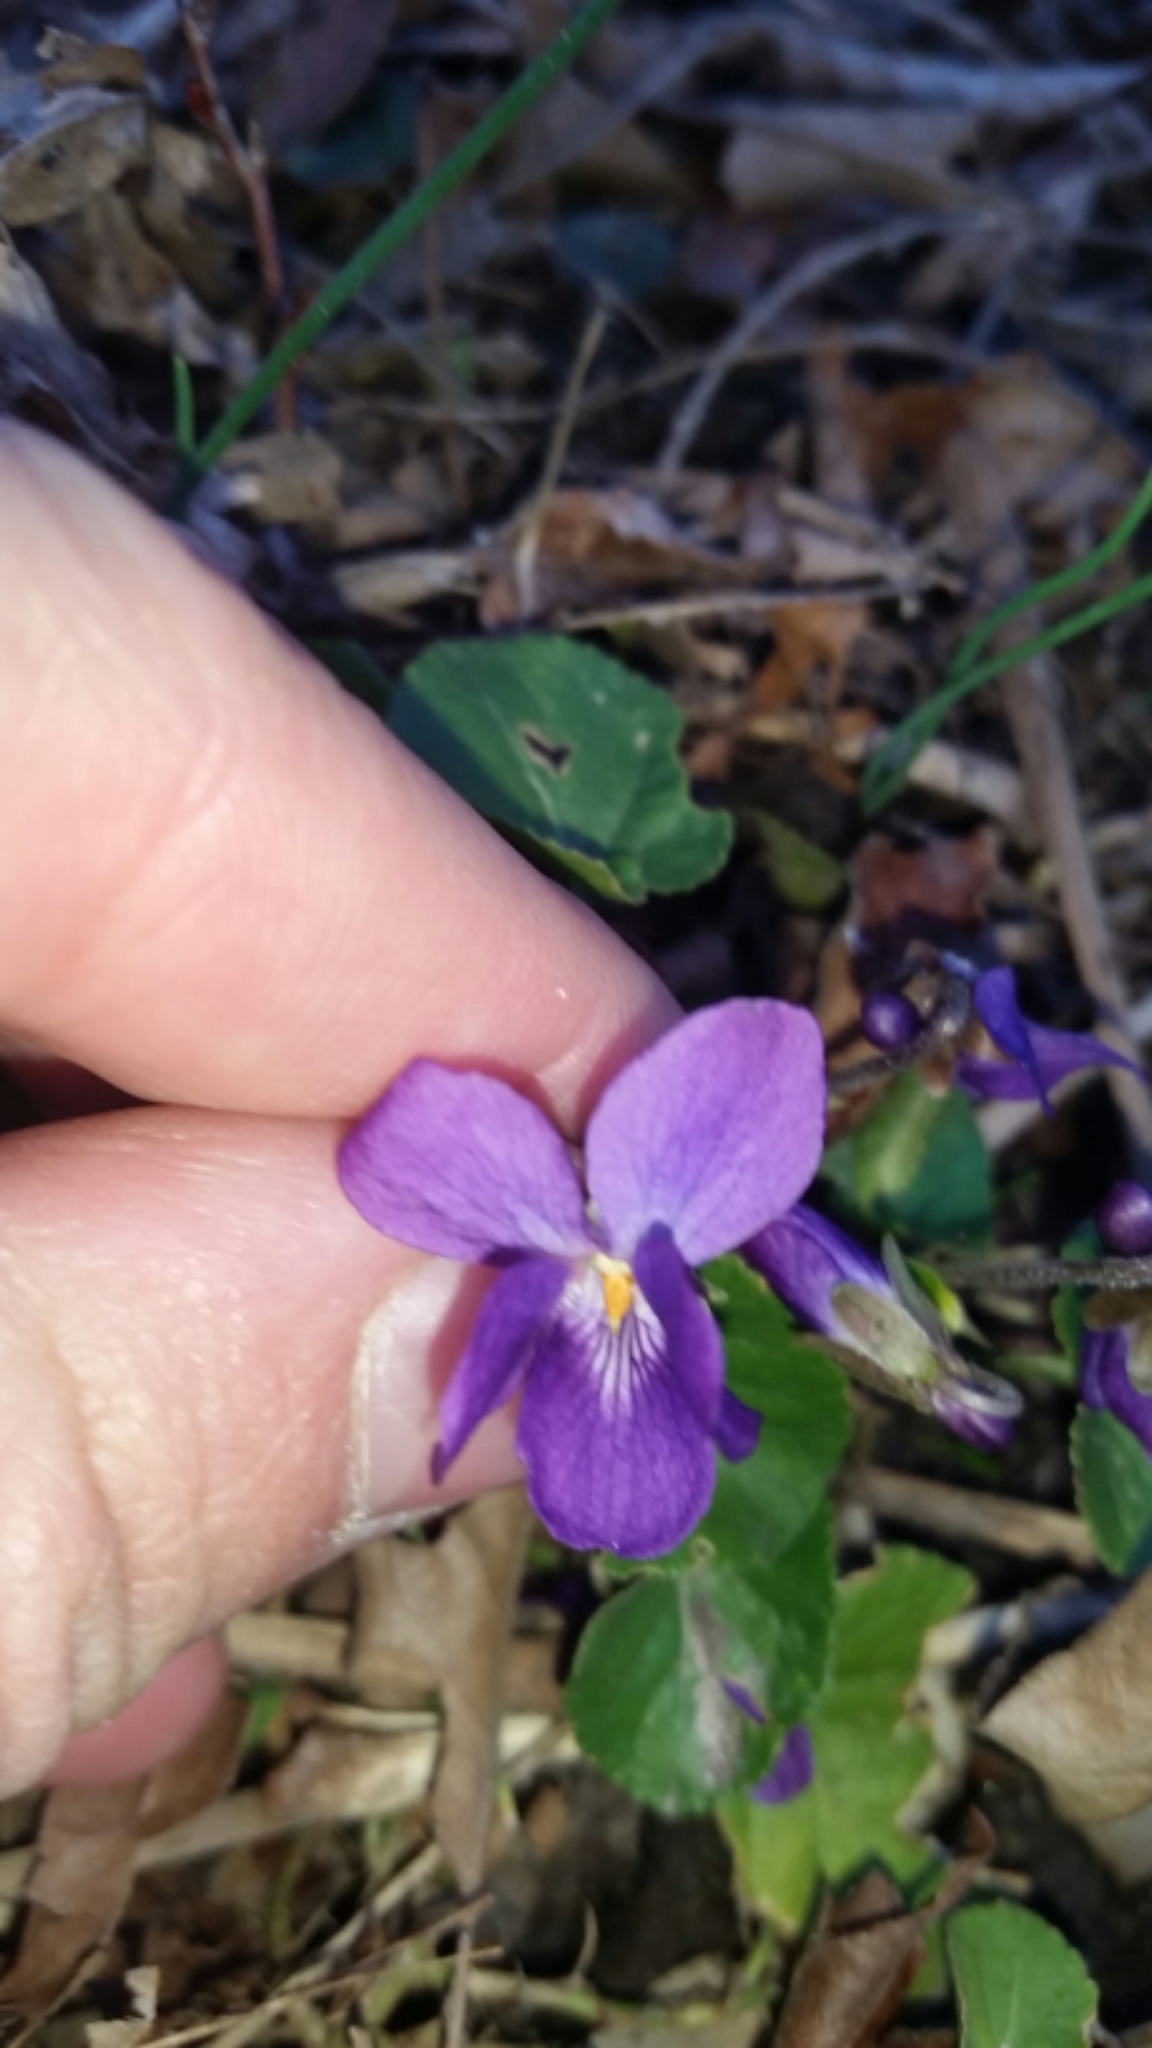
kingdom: Plantae
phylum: Tracheophyta
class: Magnoliopsida
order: Malpighiales
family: Violaceae
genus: Viola
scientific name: Viola odorata
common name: Sweet violet
